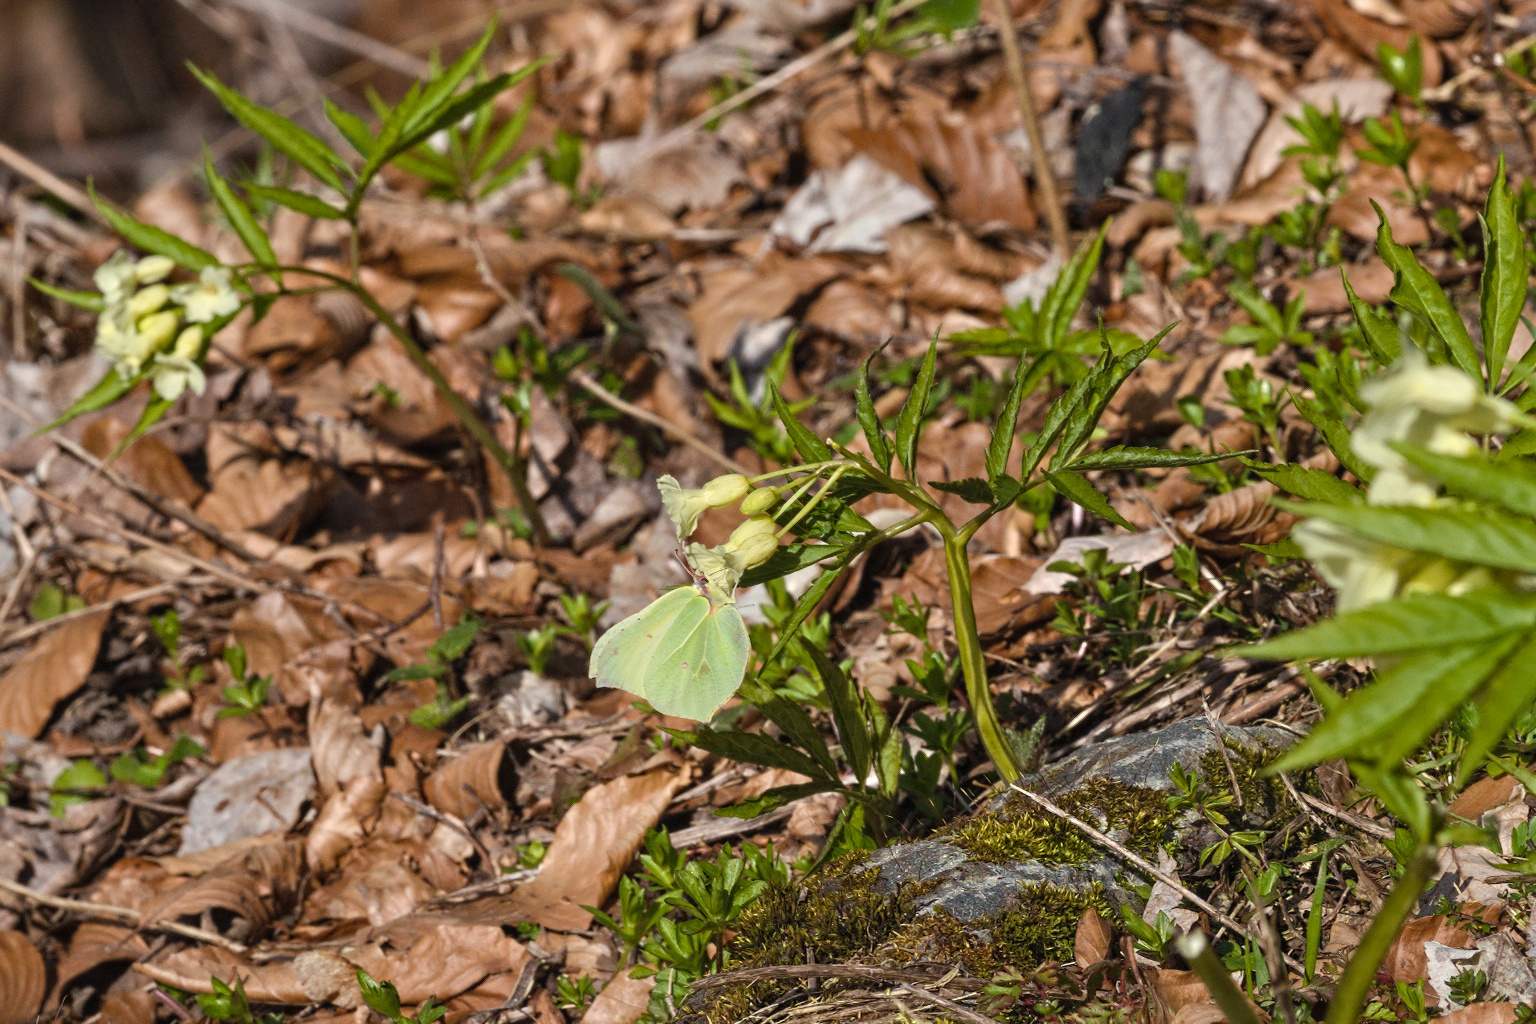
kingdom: Animalia
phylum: Arthropoda
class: Insecta
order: Lepidoptera
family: Pieridae
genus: Gonepteryx
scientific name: Gonepteryx rhamni
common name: Brimstone
